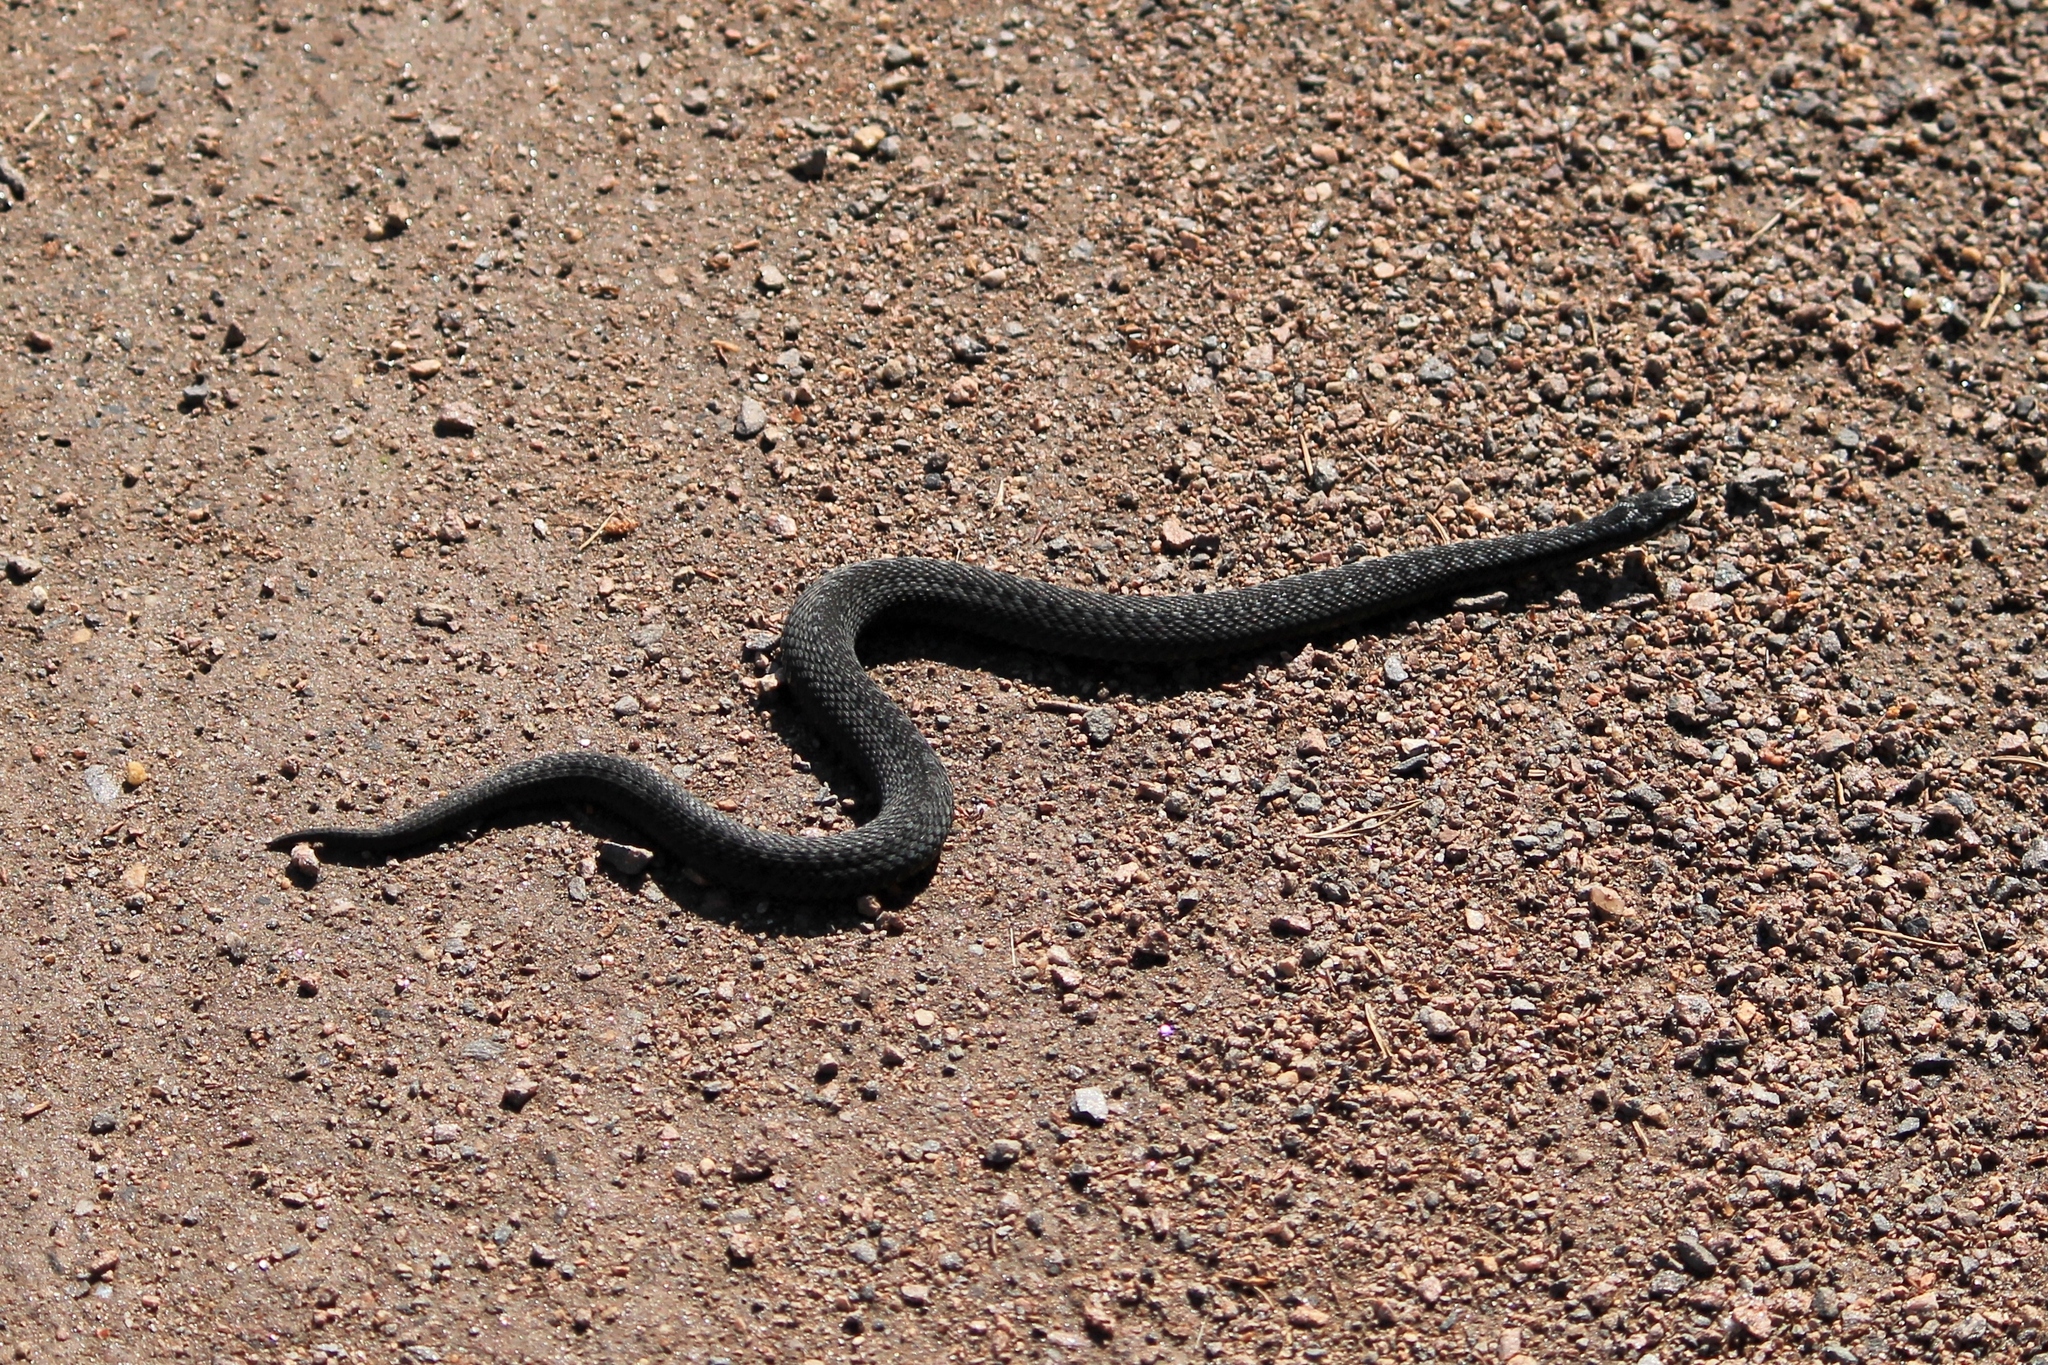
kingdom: Animalia
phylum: Chordata
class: Squamata
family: Viperidae
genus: Vipera
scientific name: Vipera berus
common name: Adder
